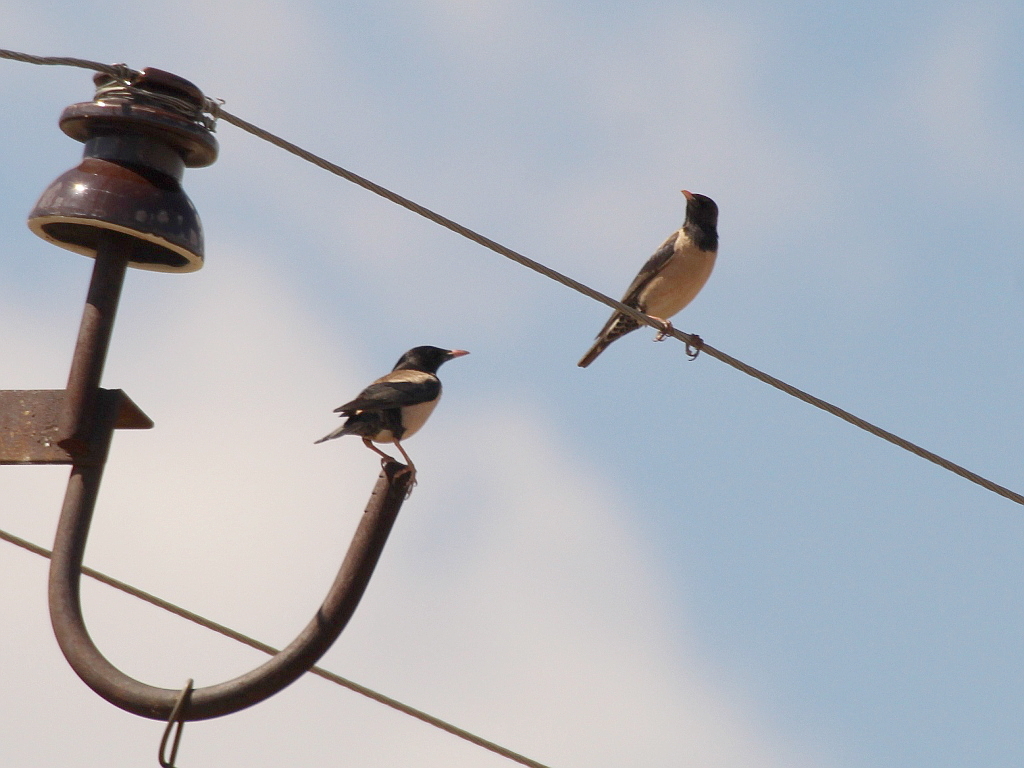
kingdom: Animalia
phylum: Chordata
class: Aves
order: Passeriformes
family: Sturnidae
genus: Pastor
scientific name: Pastor roseus
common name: Rosy starling
